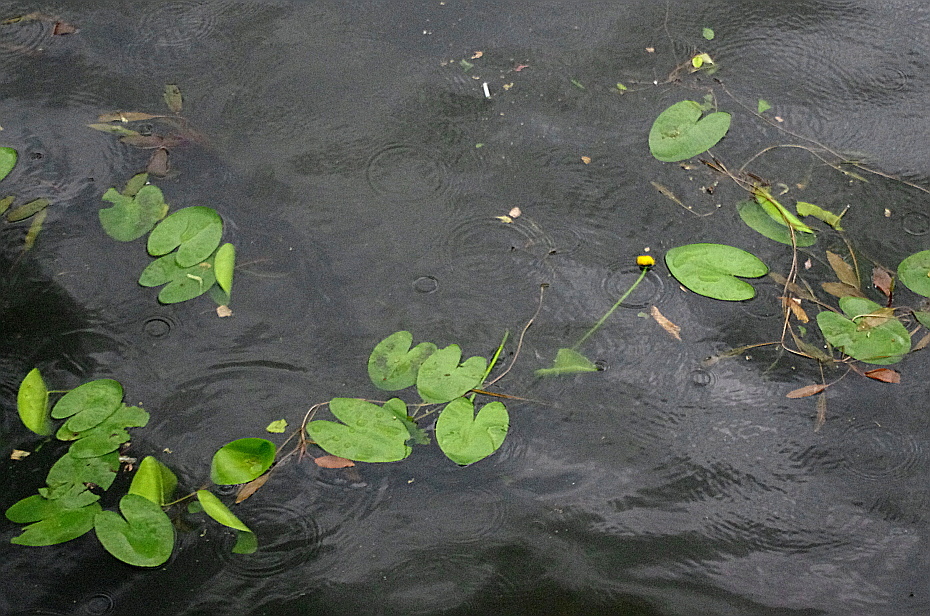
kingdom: Plantae
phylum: Tracheophyta
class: Magnoliopsida
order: Nymphaeales
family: Nymphaeaceae
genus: Nuphar
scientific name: Nuphar lutea
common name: Yellow water-lily
